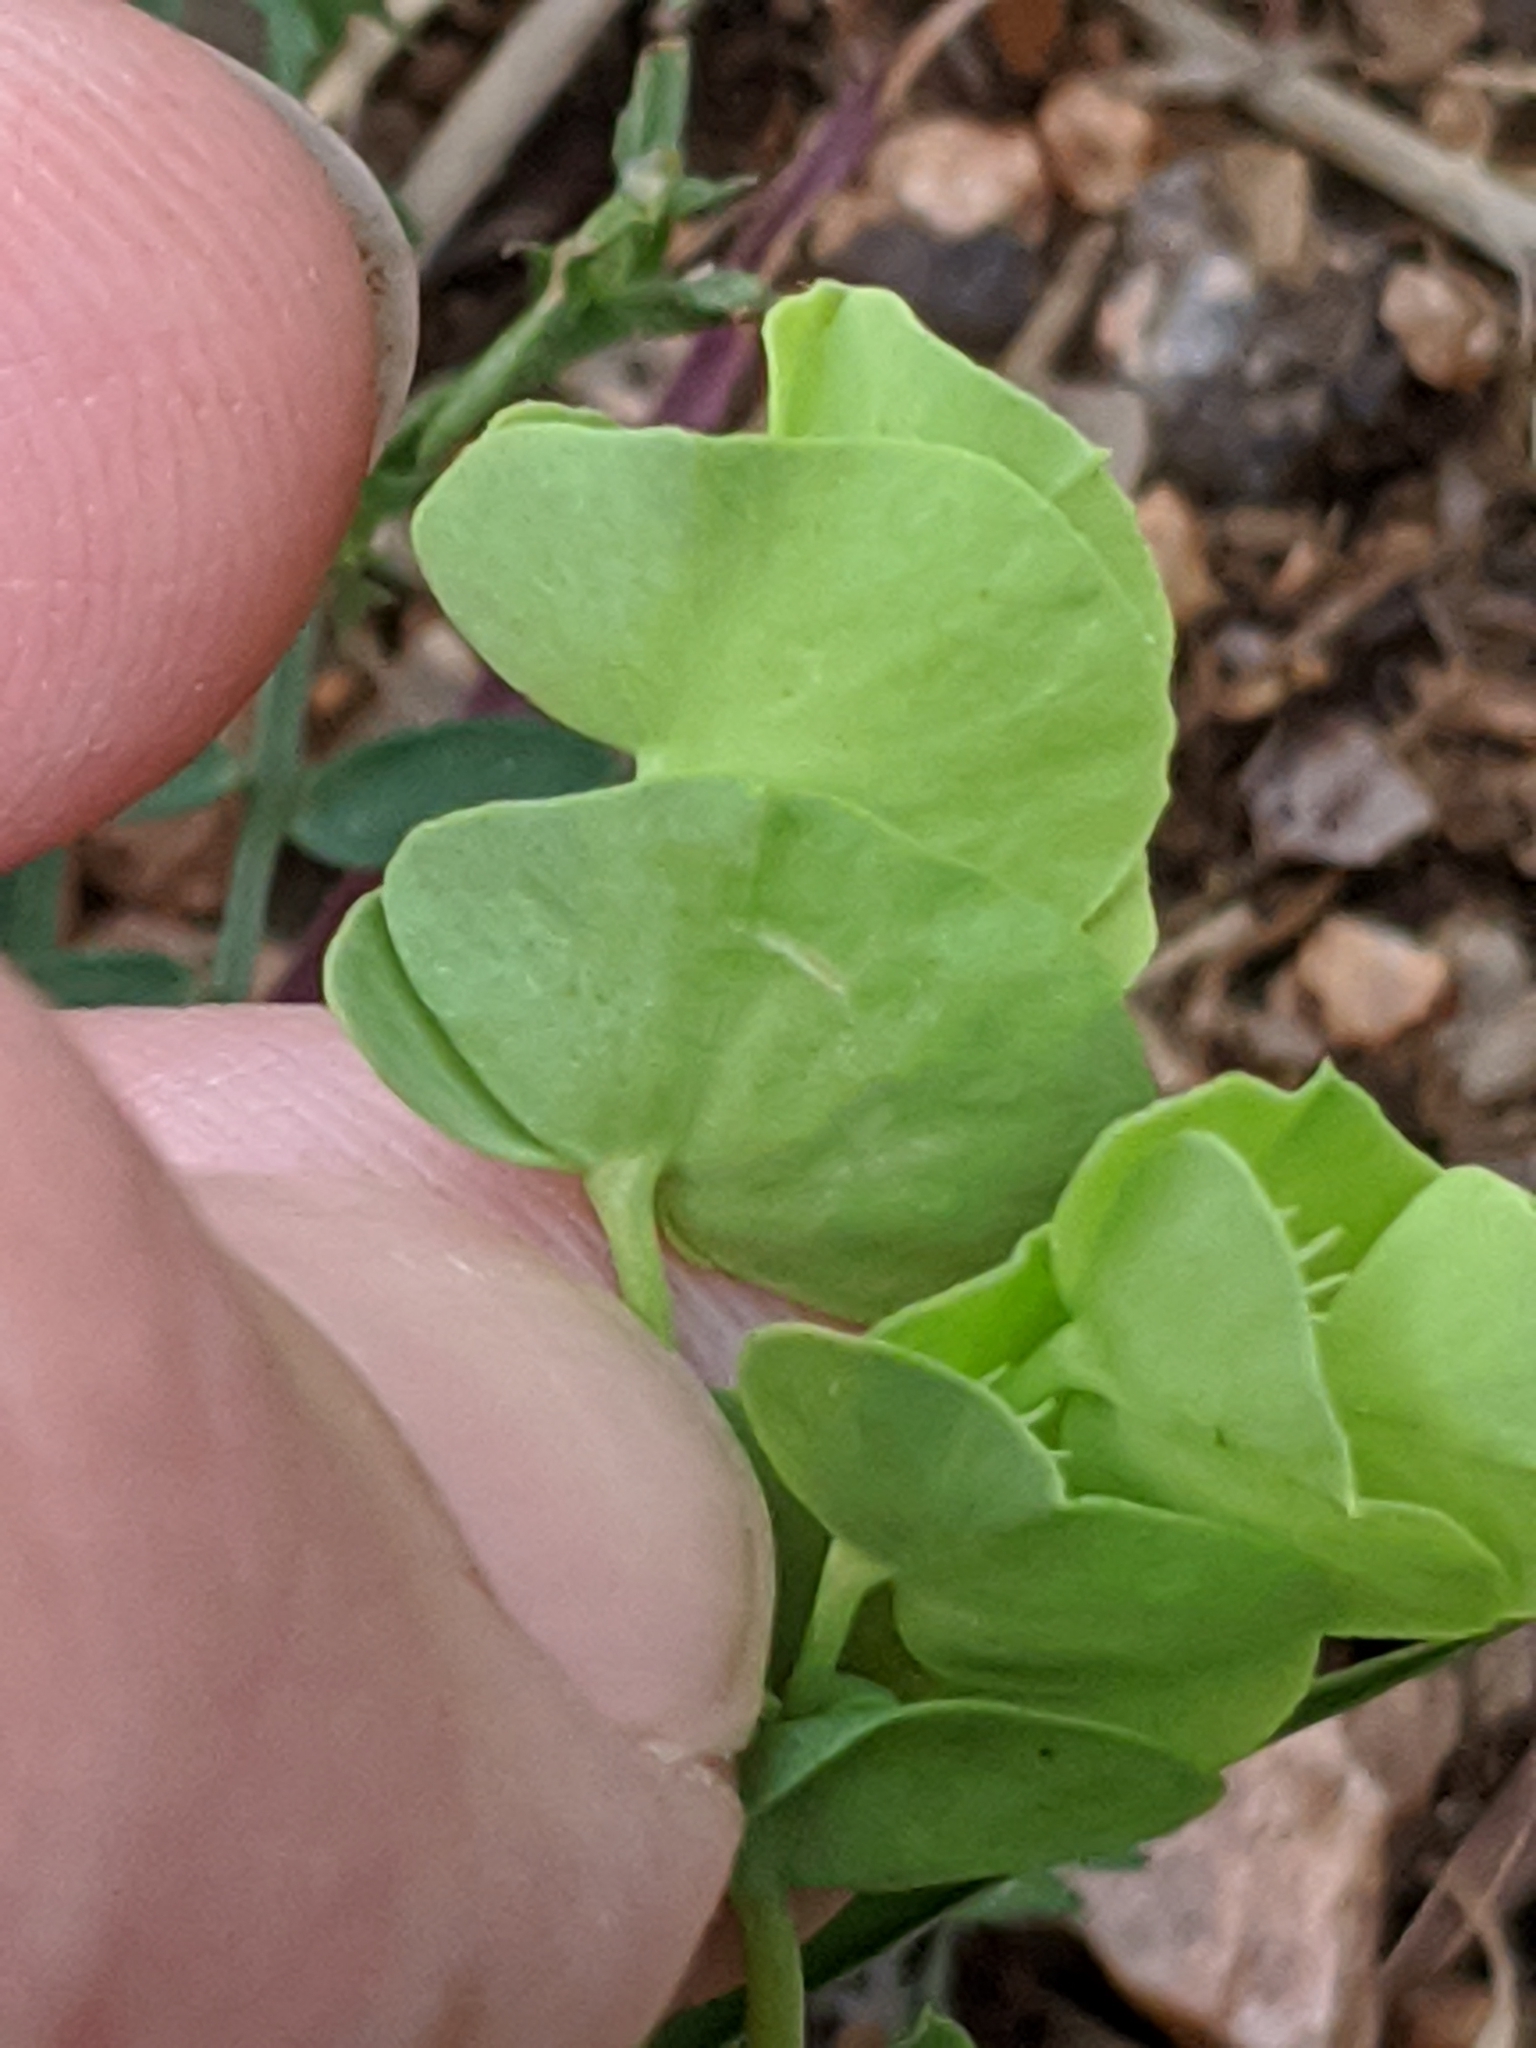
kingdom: Plantae
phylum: Tracheophyta
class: Magnoliopsida
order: Malpighiales
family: Euphorbiaceae
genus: Euphorbia
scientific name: Euphorbia longicruris
